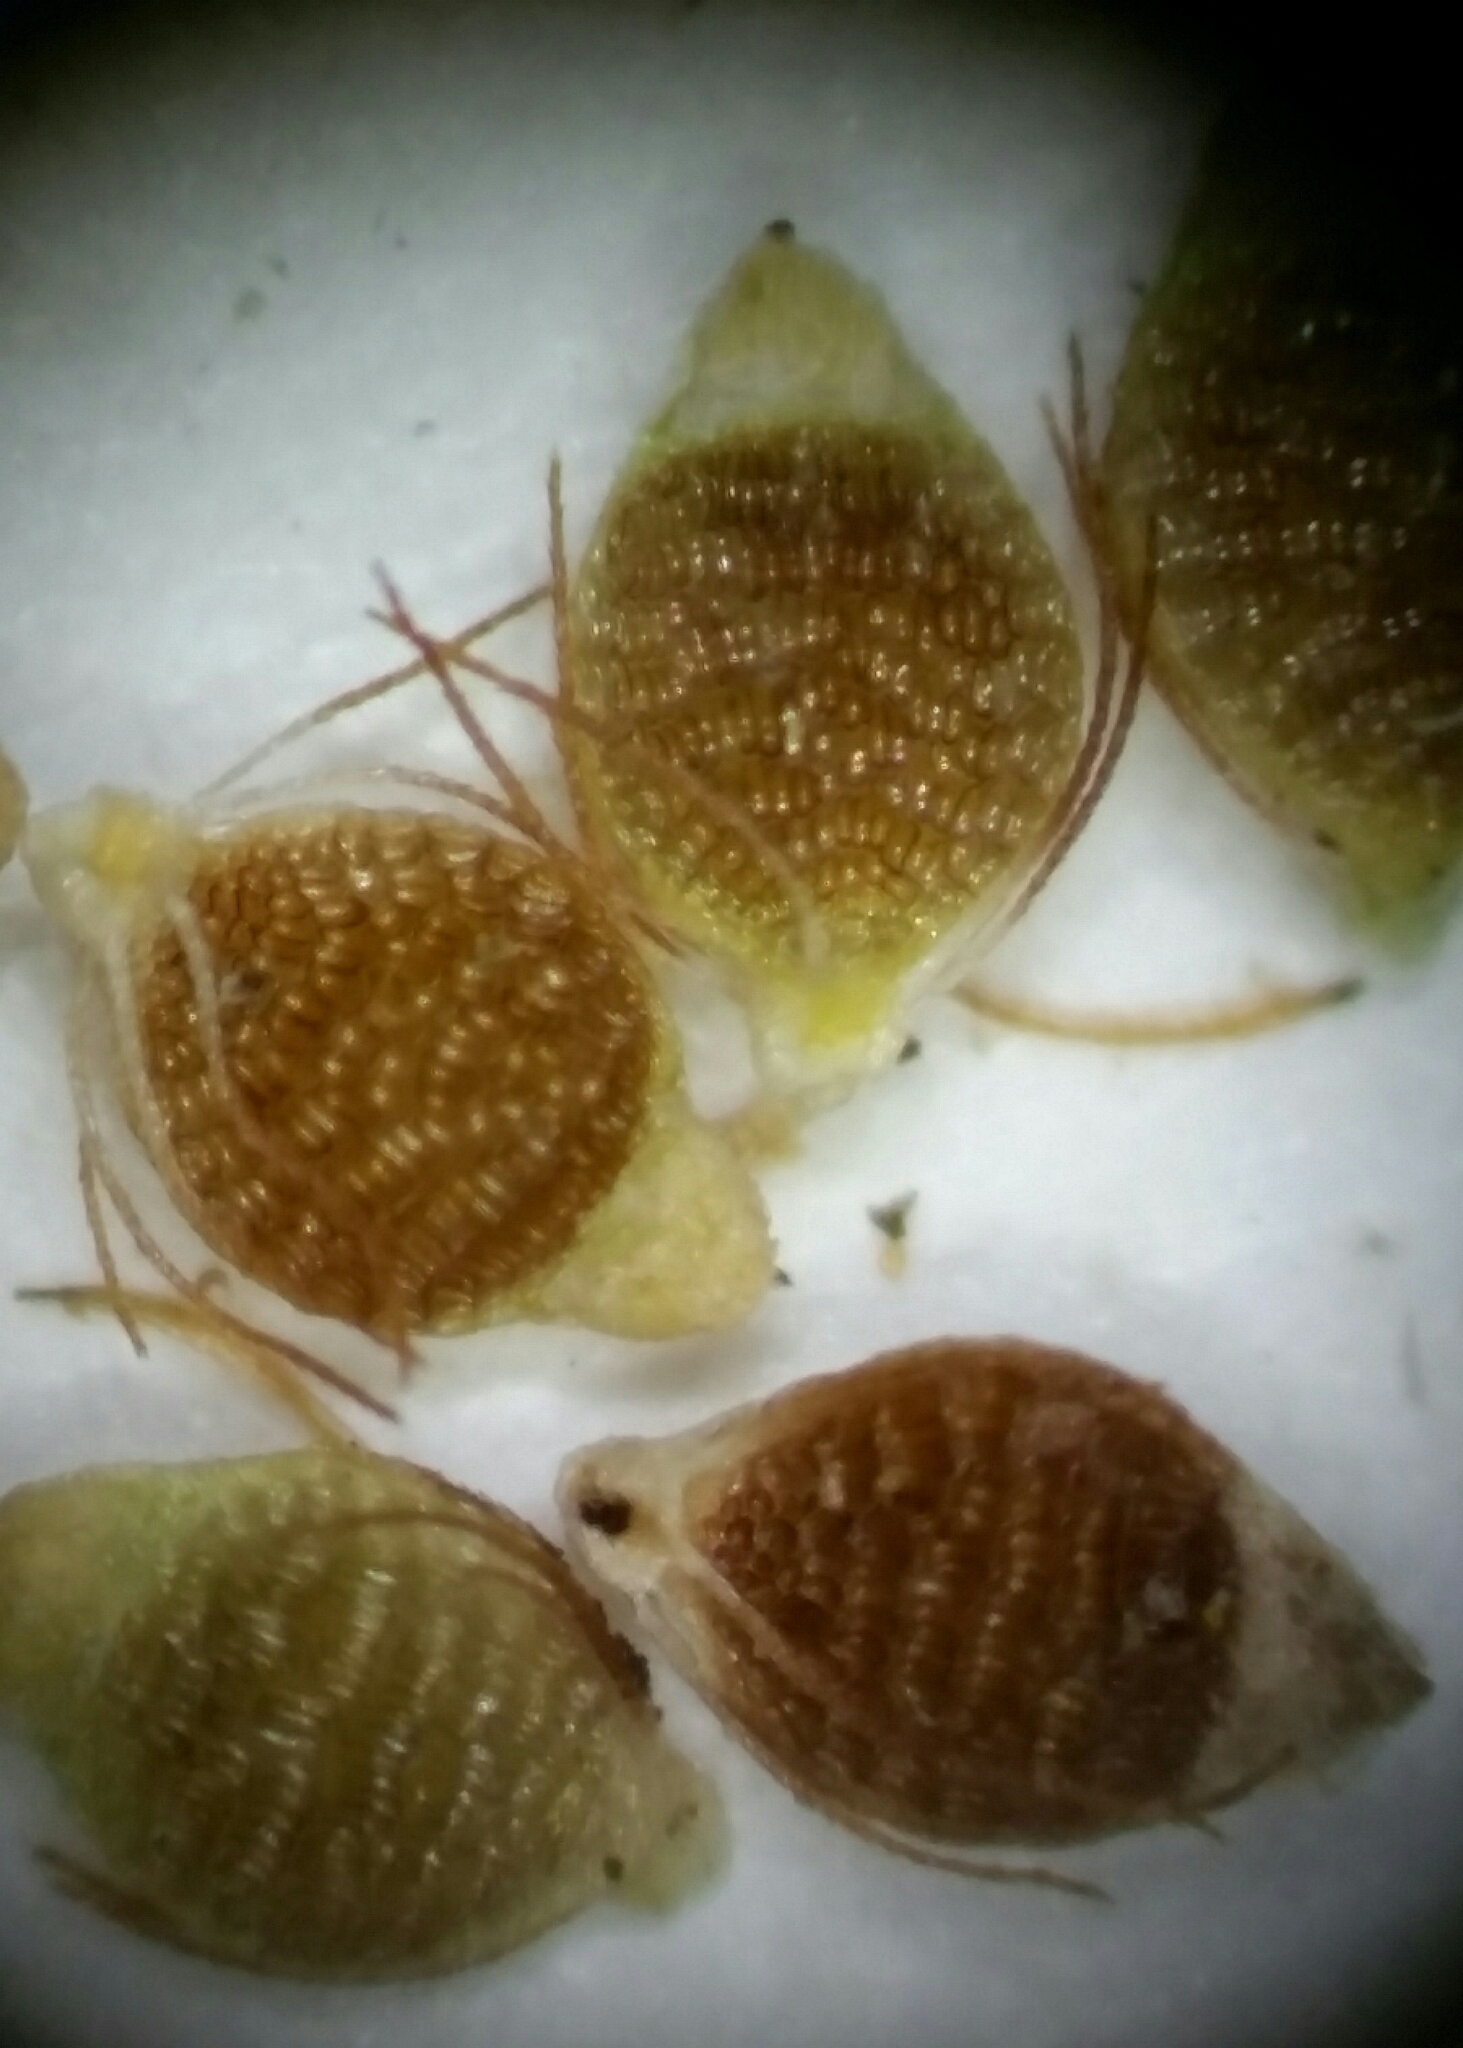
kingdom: Plantae
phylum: Tracheophyta
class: Liliopsida
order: Poales
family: Cyperaceae
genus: Rhynchospora
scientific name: Rhynchospora microcarpa
